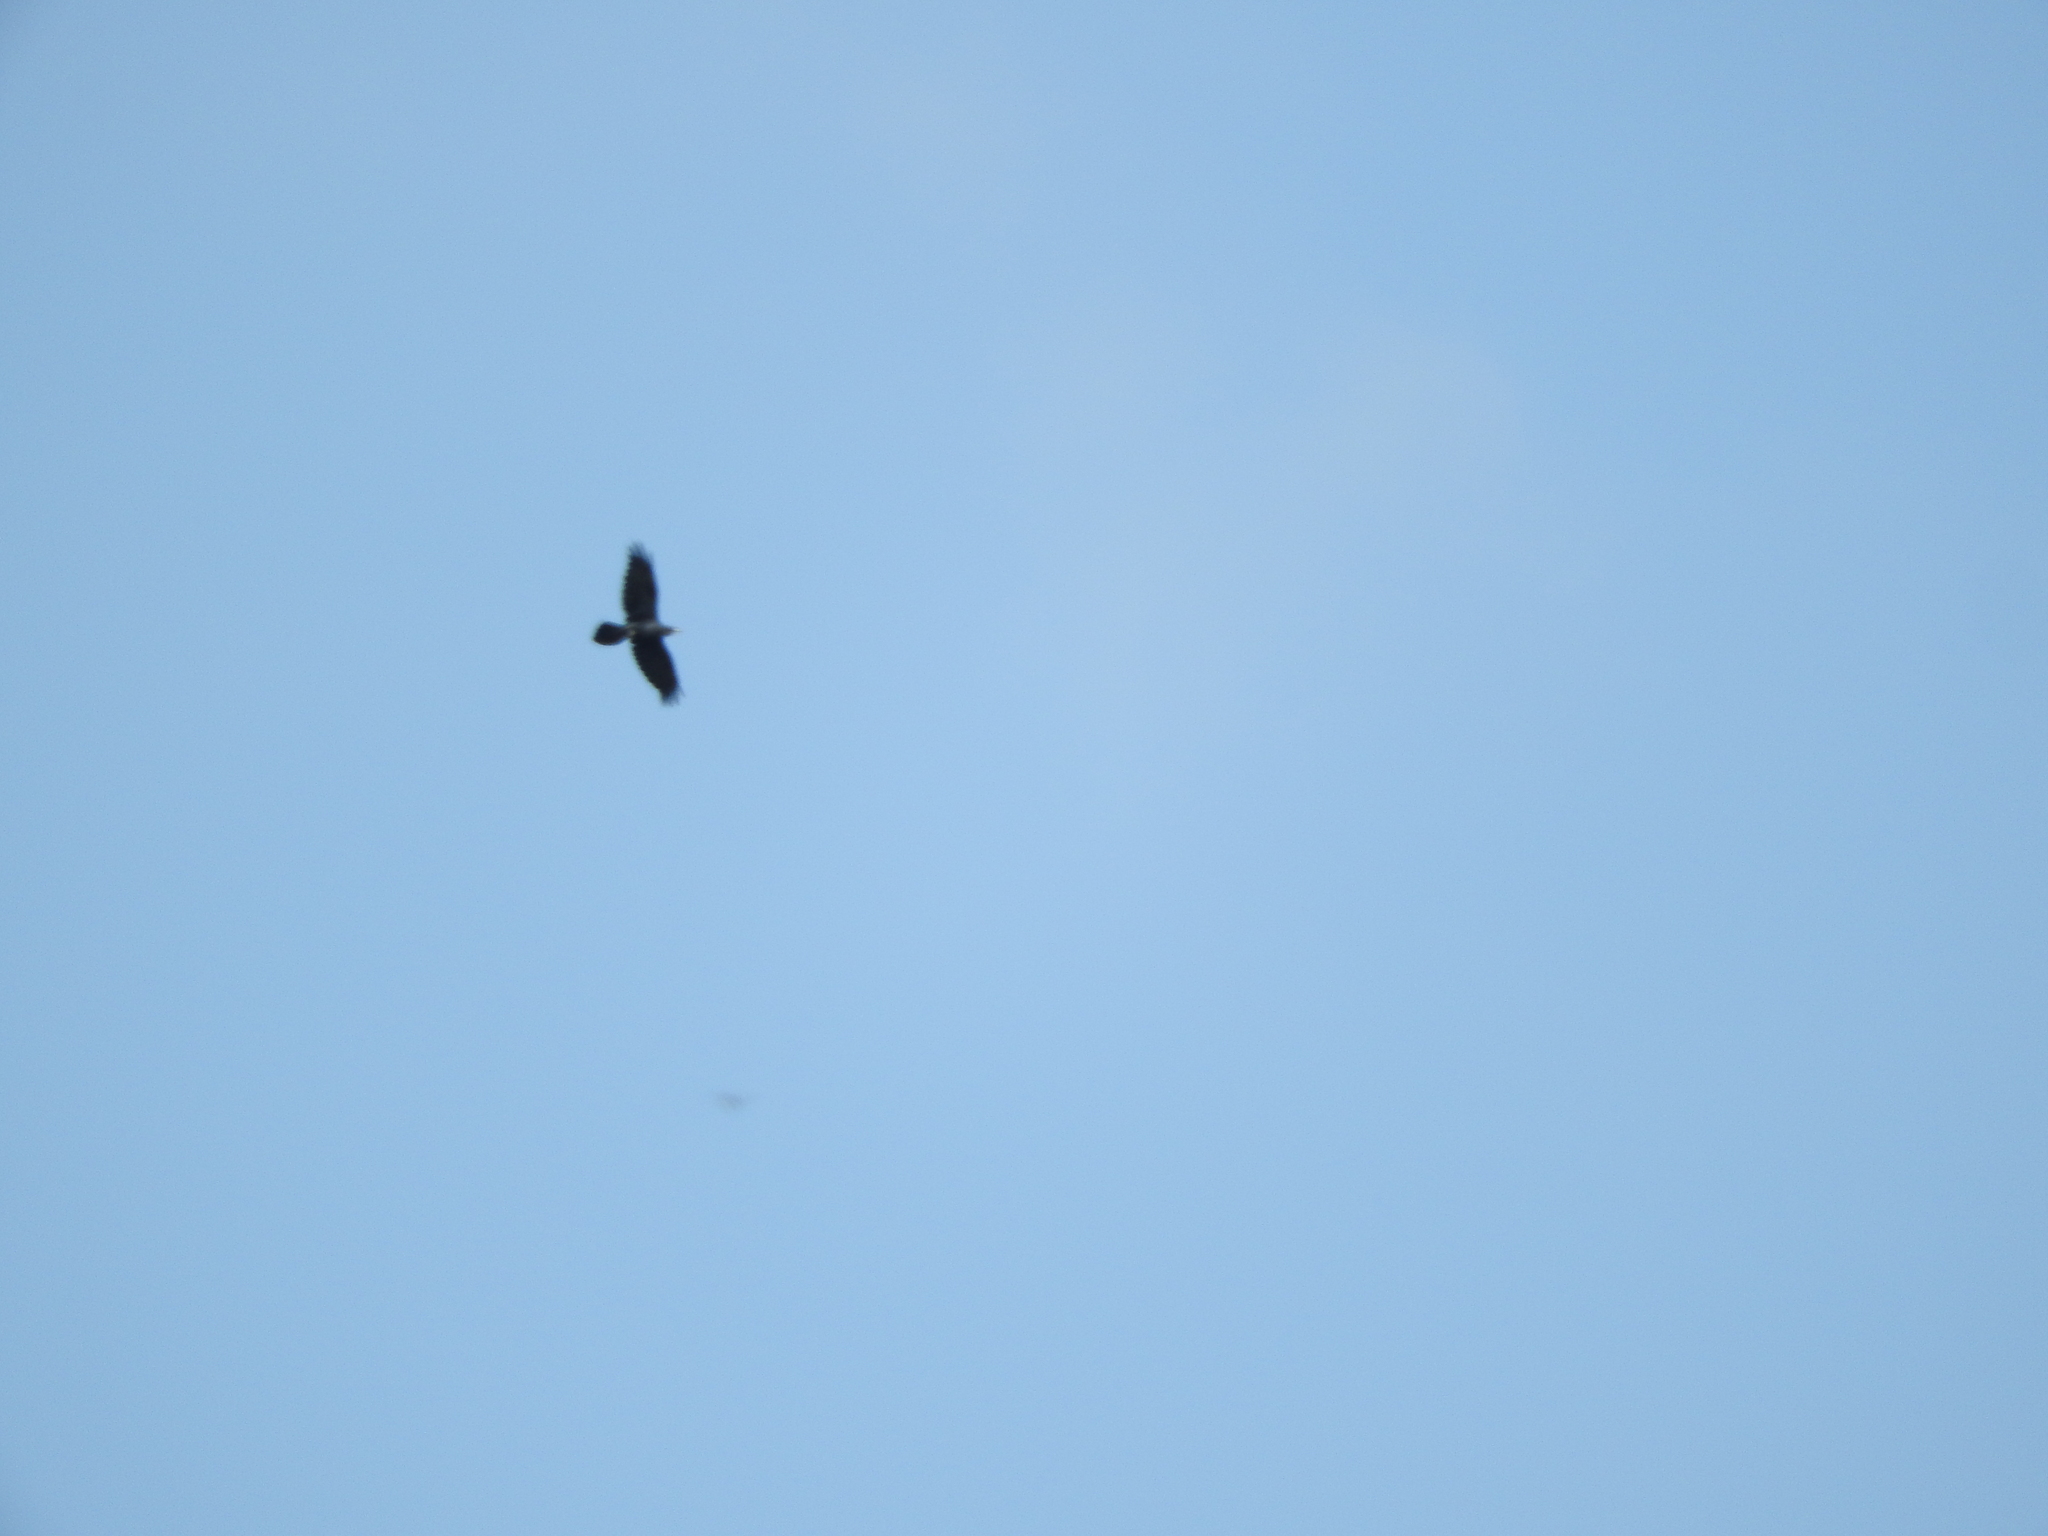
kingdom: Animalia
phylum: Chordata
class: Aves
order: Passeriformes
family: Corvidae
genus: Corvus
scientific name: Corvus corax
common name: Common raven
